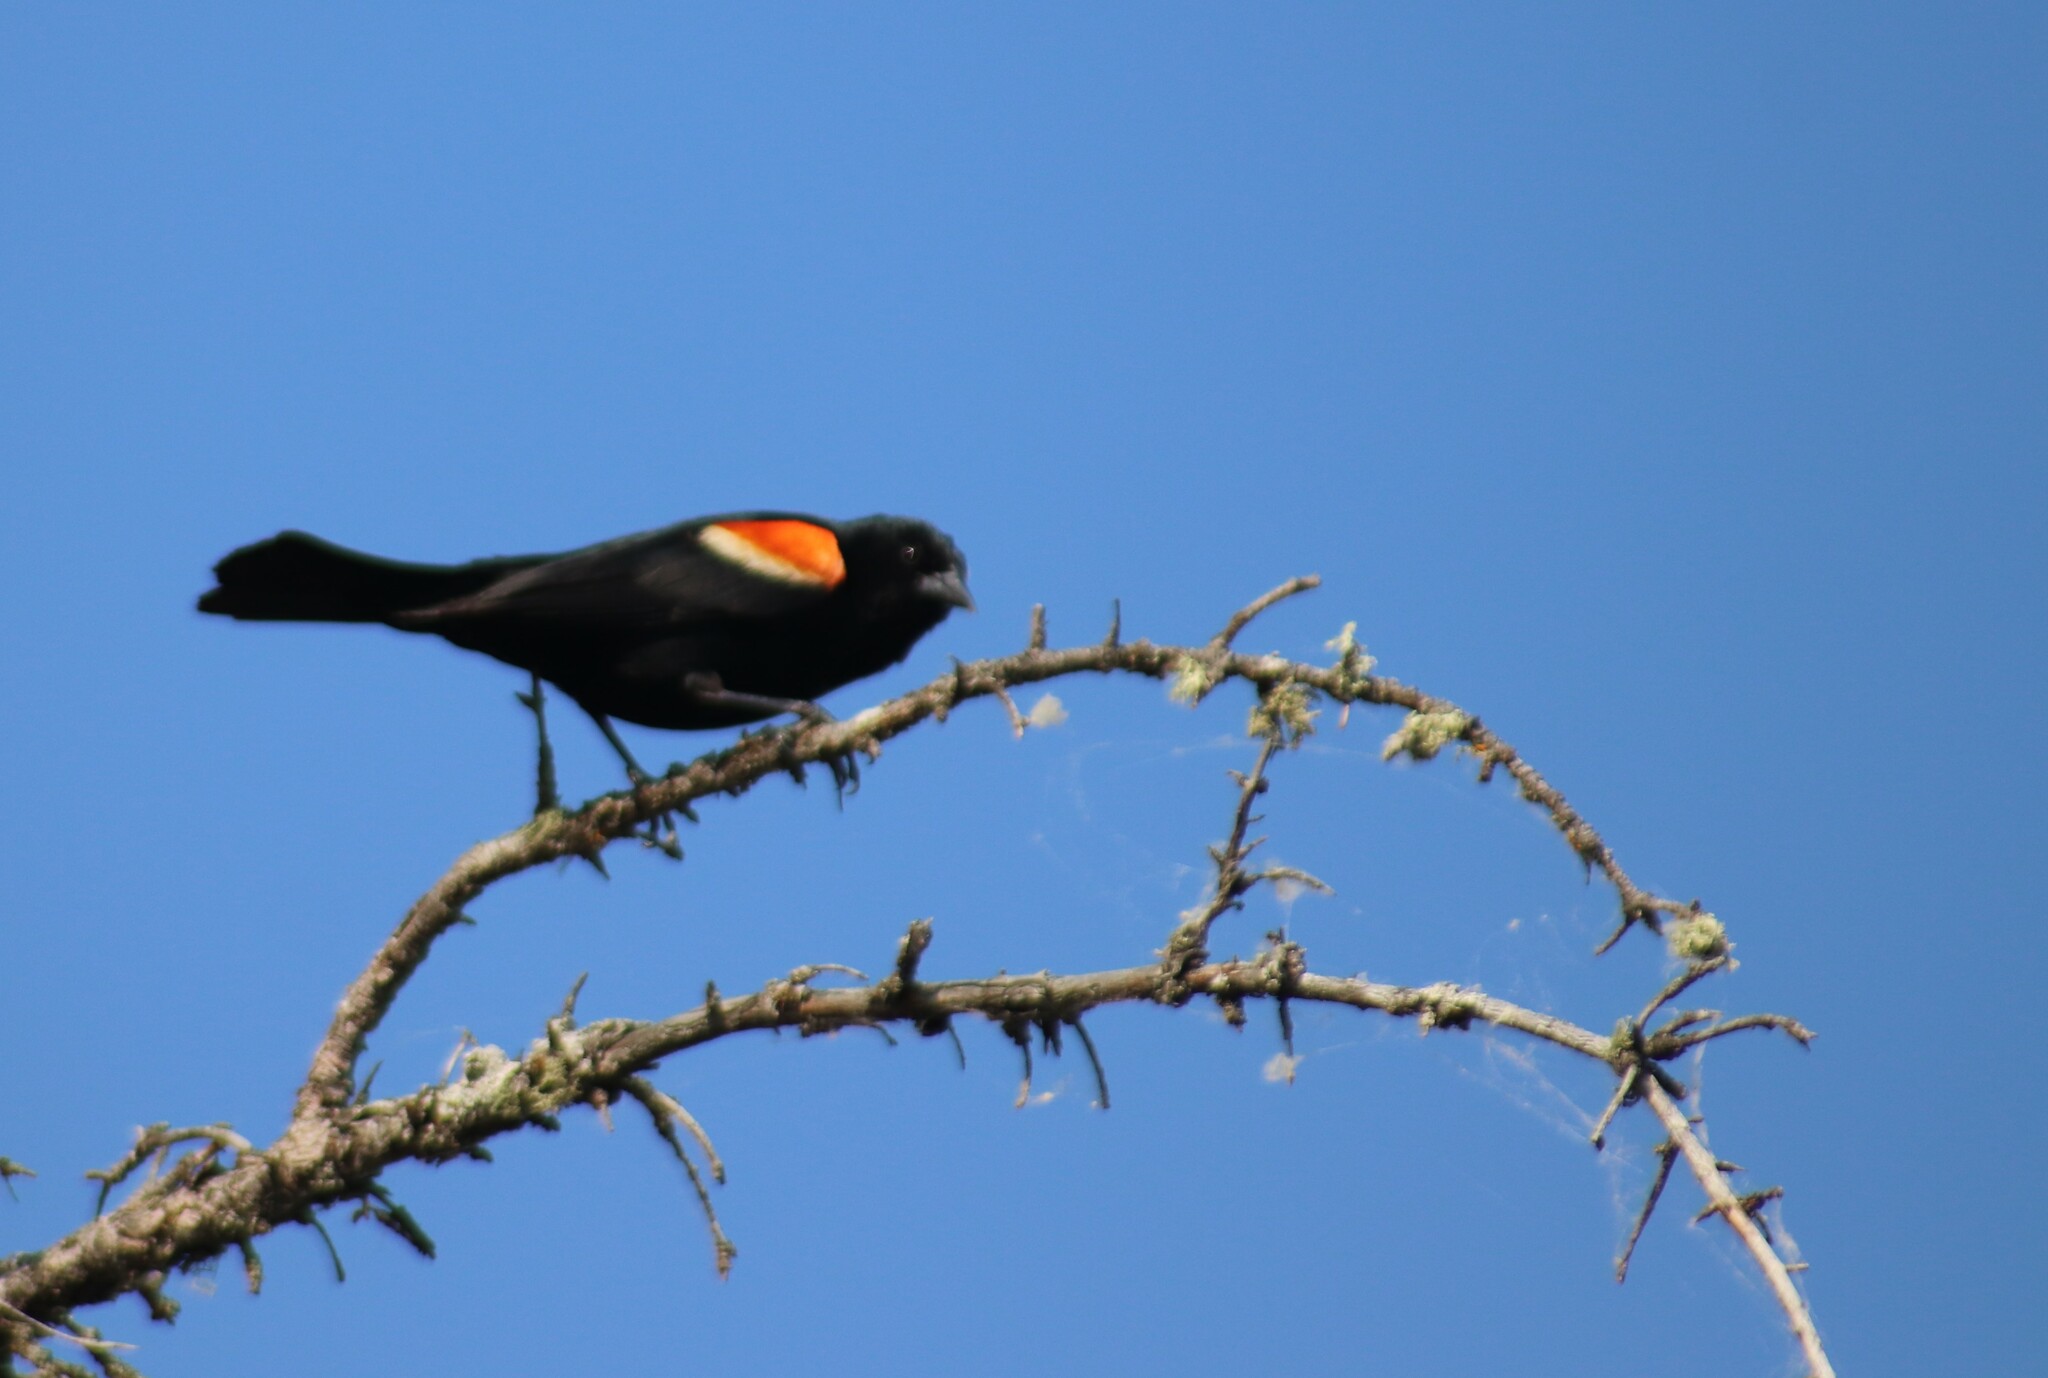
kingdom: Animalia
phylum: Chordata
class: Aves
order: Passeriformes
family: Icteridae
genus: Agelaius
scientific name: Agelaius phoeniceus
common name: Red-winged blackbird
